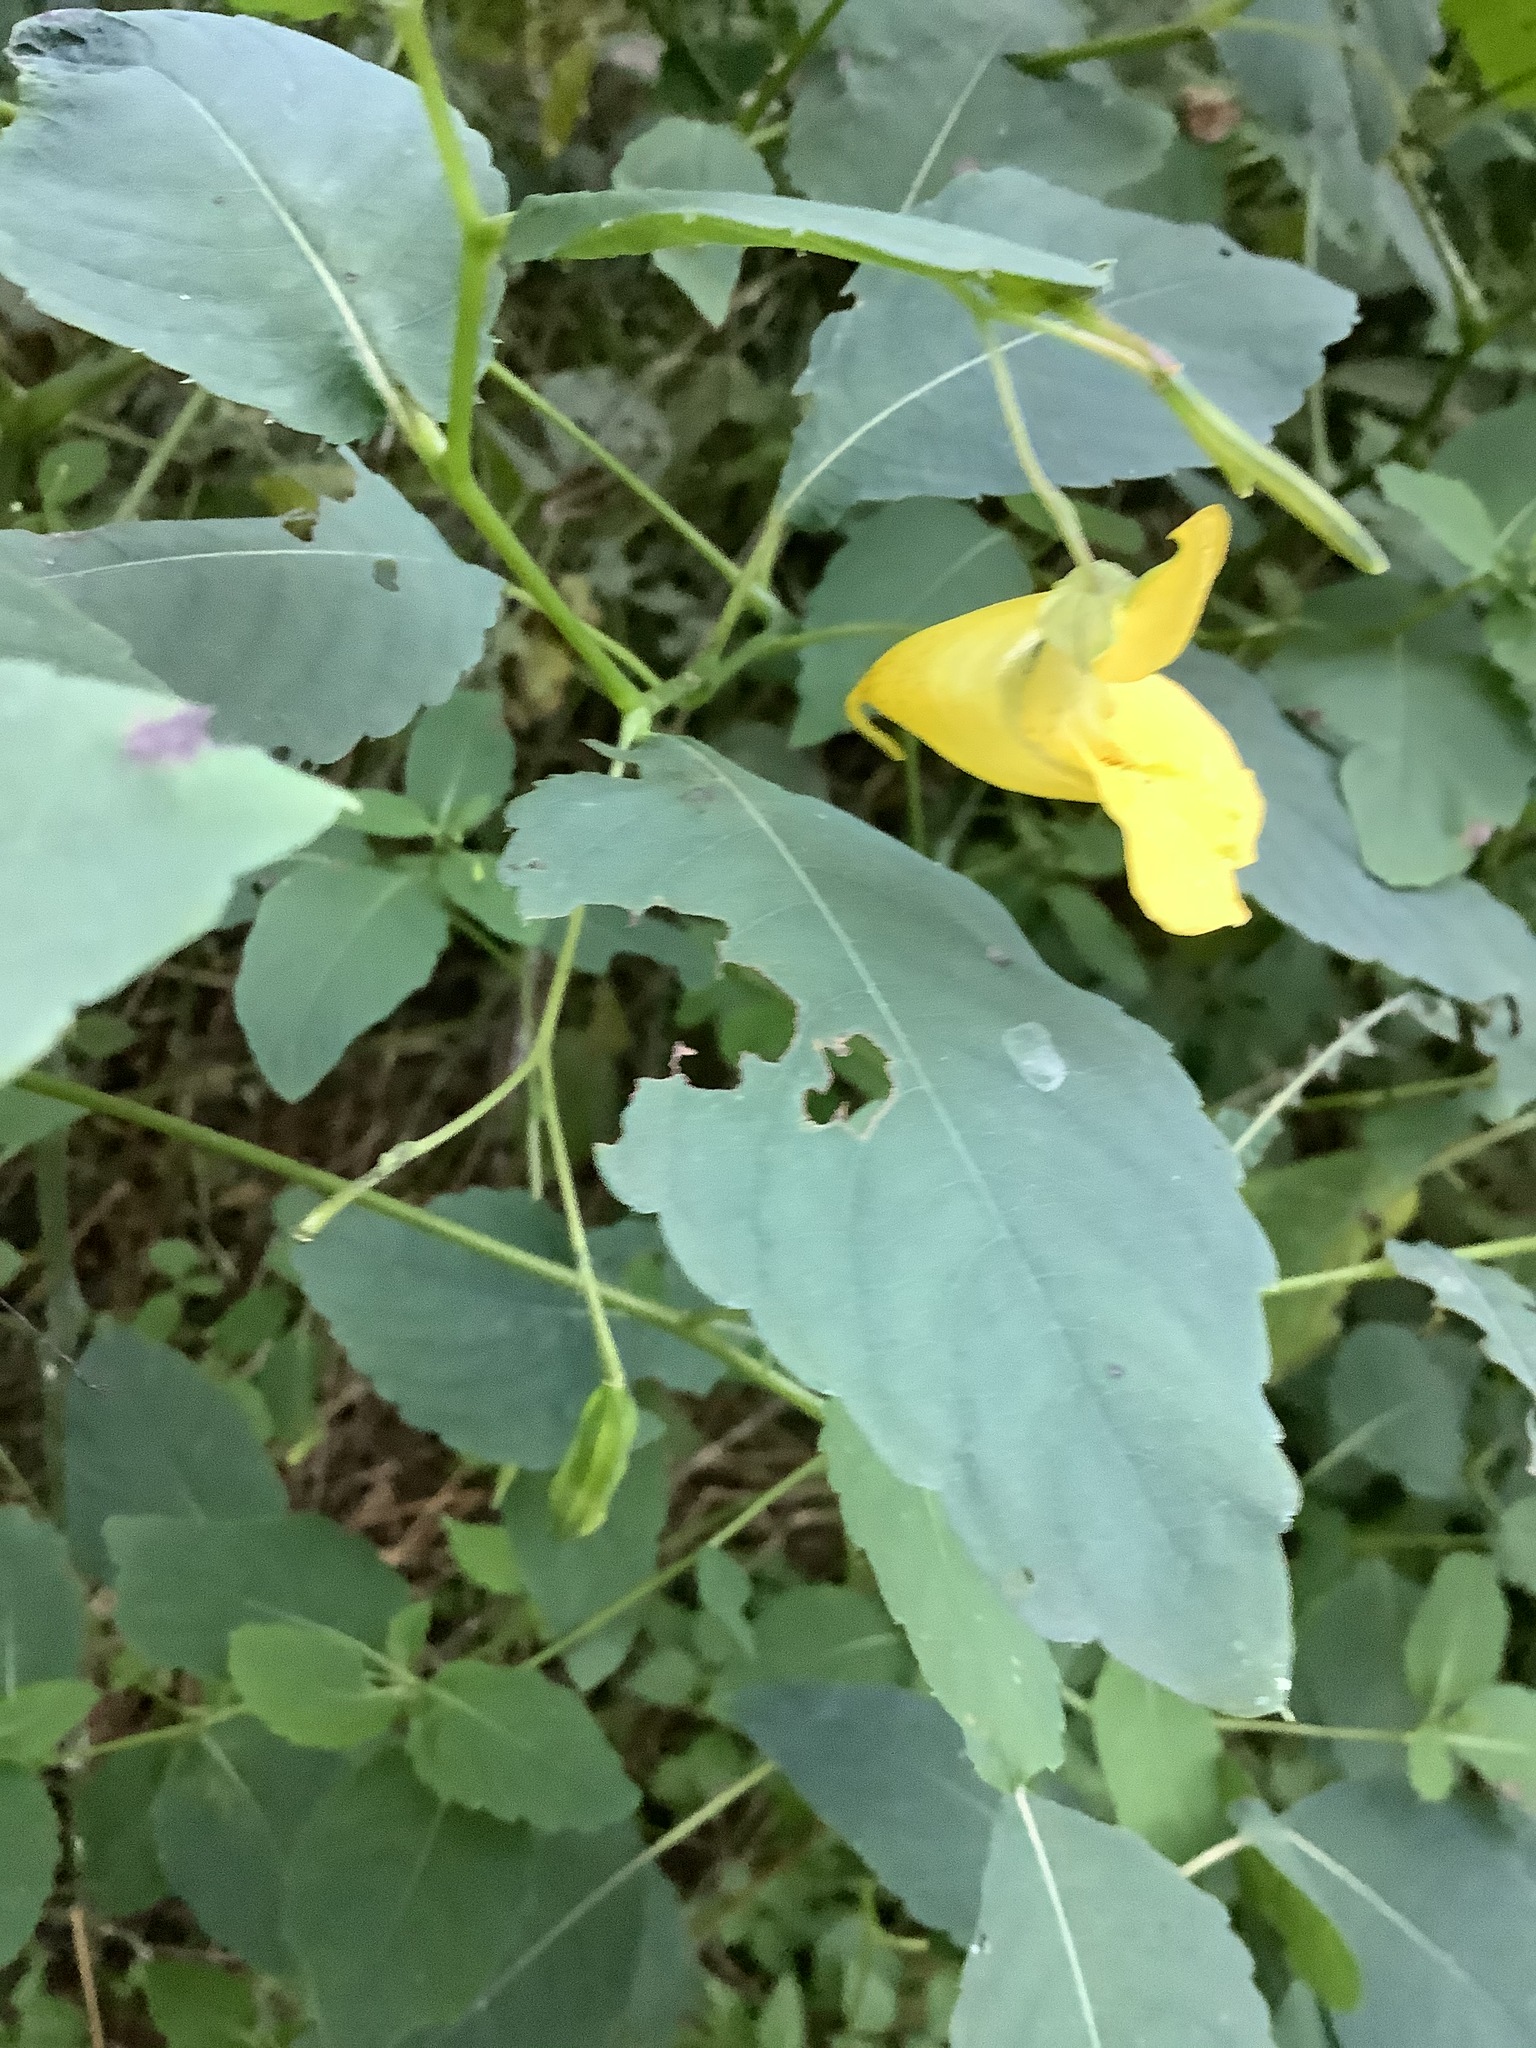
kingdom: Plantae
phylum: Tracheophyta
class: Magnoliopsida
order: Ericales
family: Balsaminaceae
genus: Impatiens
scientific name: Impatiens pallida
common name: Pale snapweed
